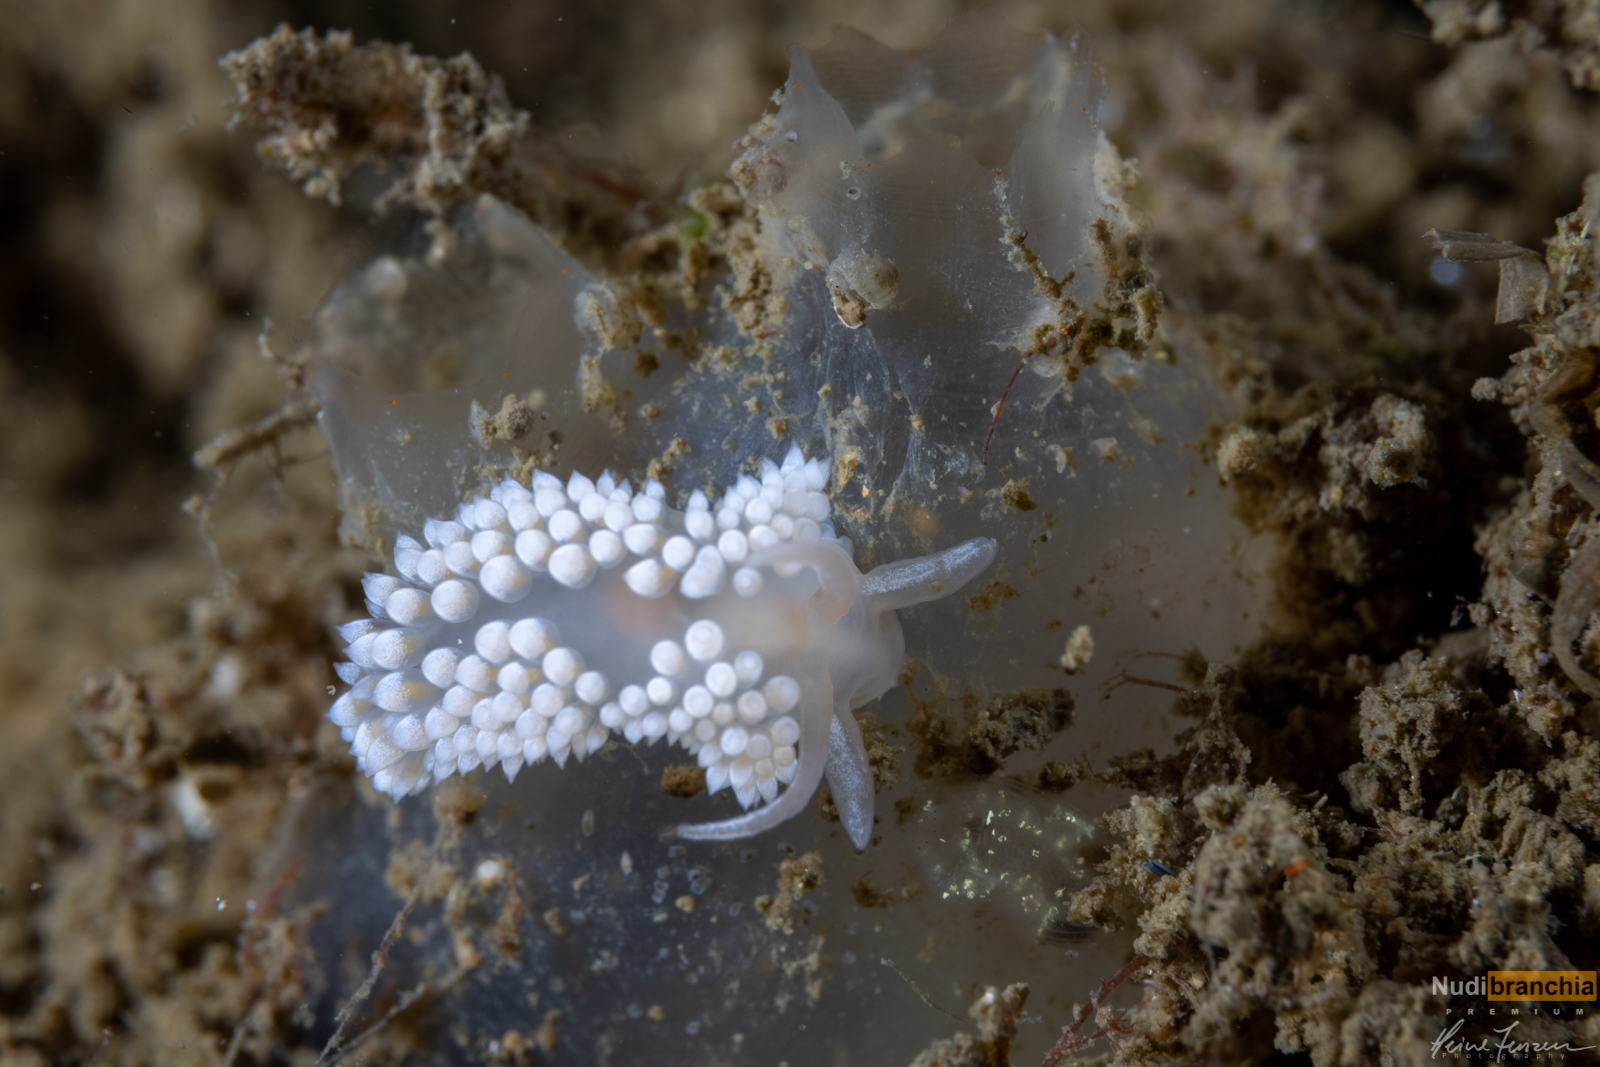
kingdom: Animalia
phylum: Mollusca
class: Gastropoda
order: Nudibranchia
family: Coryphellidae
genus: Coryphella
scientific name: Coryphella verrucosa
